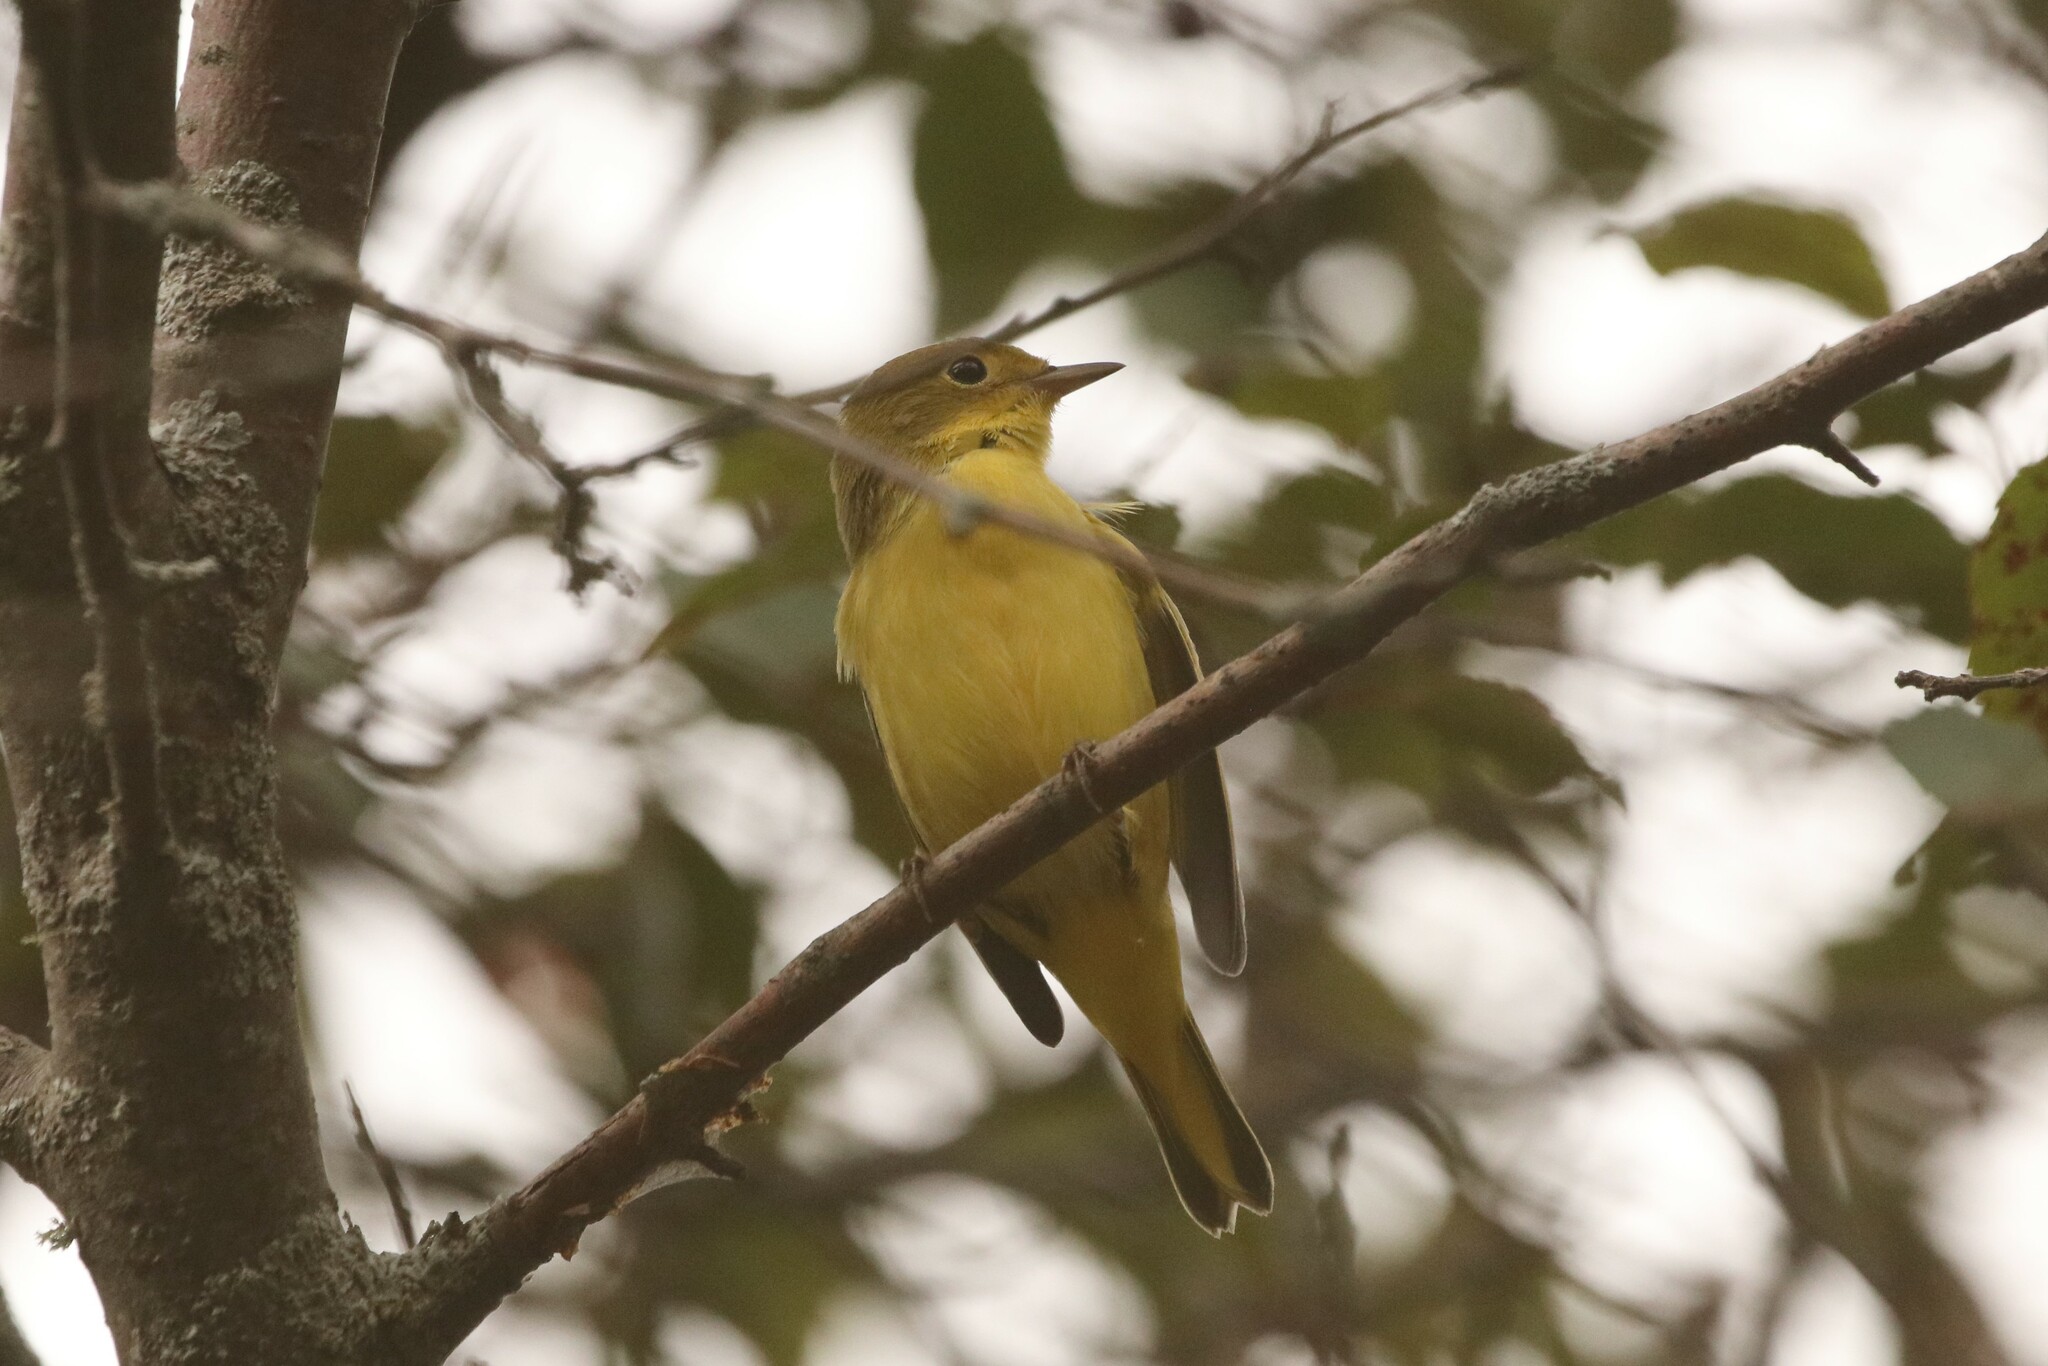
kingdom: Animalia
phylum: Chordata
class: Aves
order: Passeriformes
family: Parulidae
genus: Setophaga
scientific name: Setophaga petechia
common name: Yellow warbler
